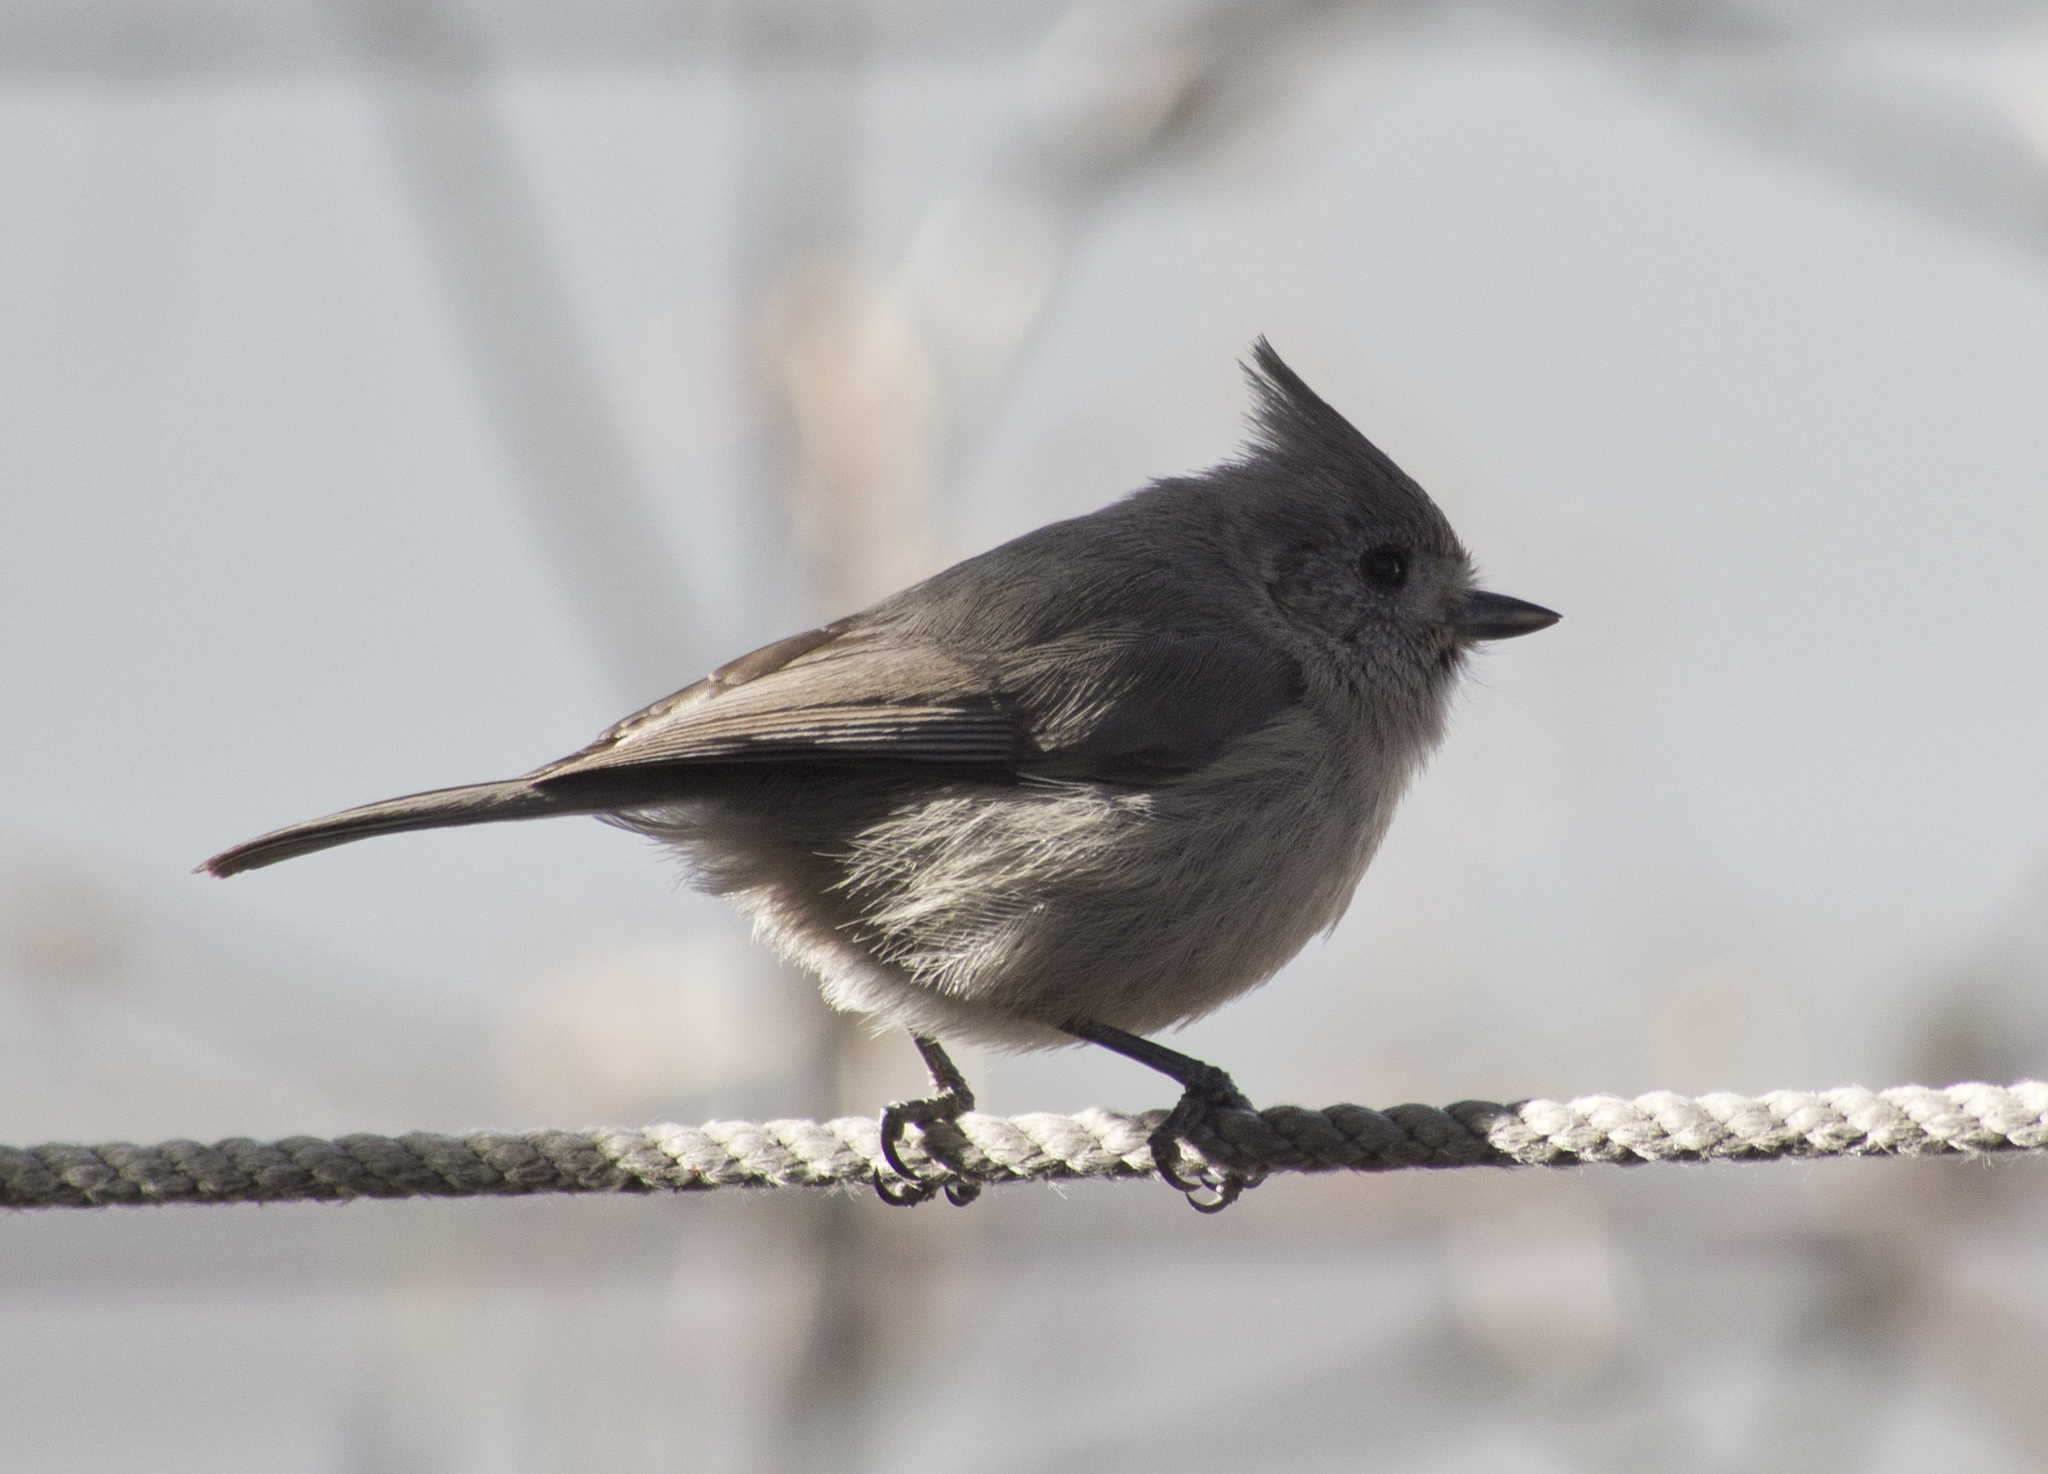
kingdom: Animalia
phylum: Chordata
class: Aves
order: Passeriformes
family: Paridae
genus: Baeolophus
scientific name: Baeolophus ridgwayi
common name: Juniper titmouse
